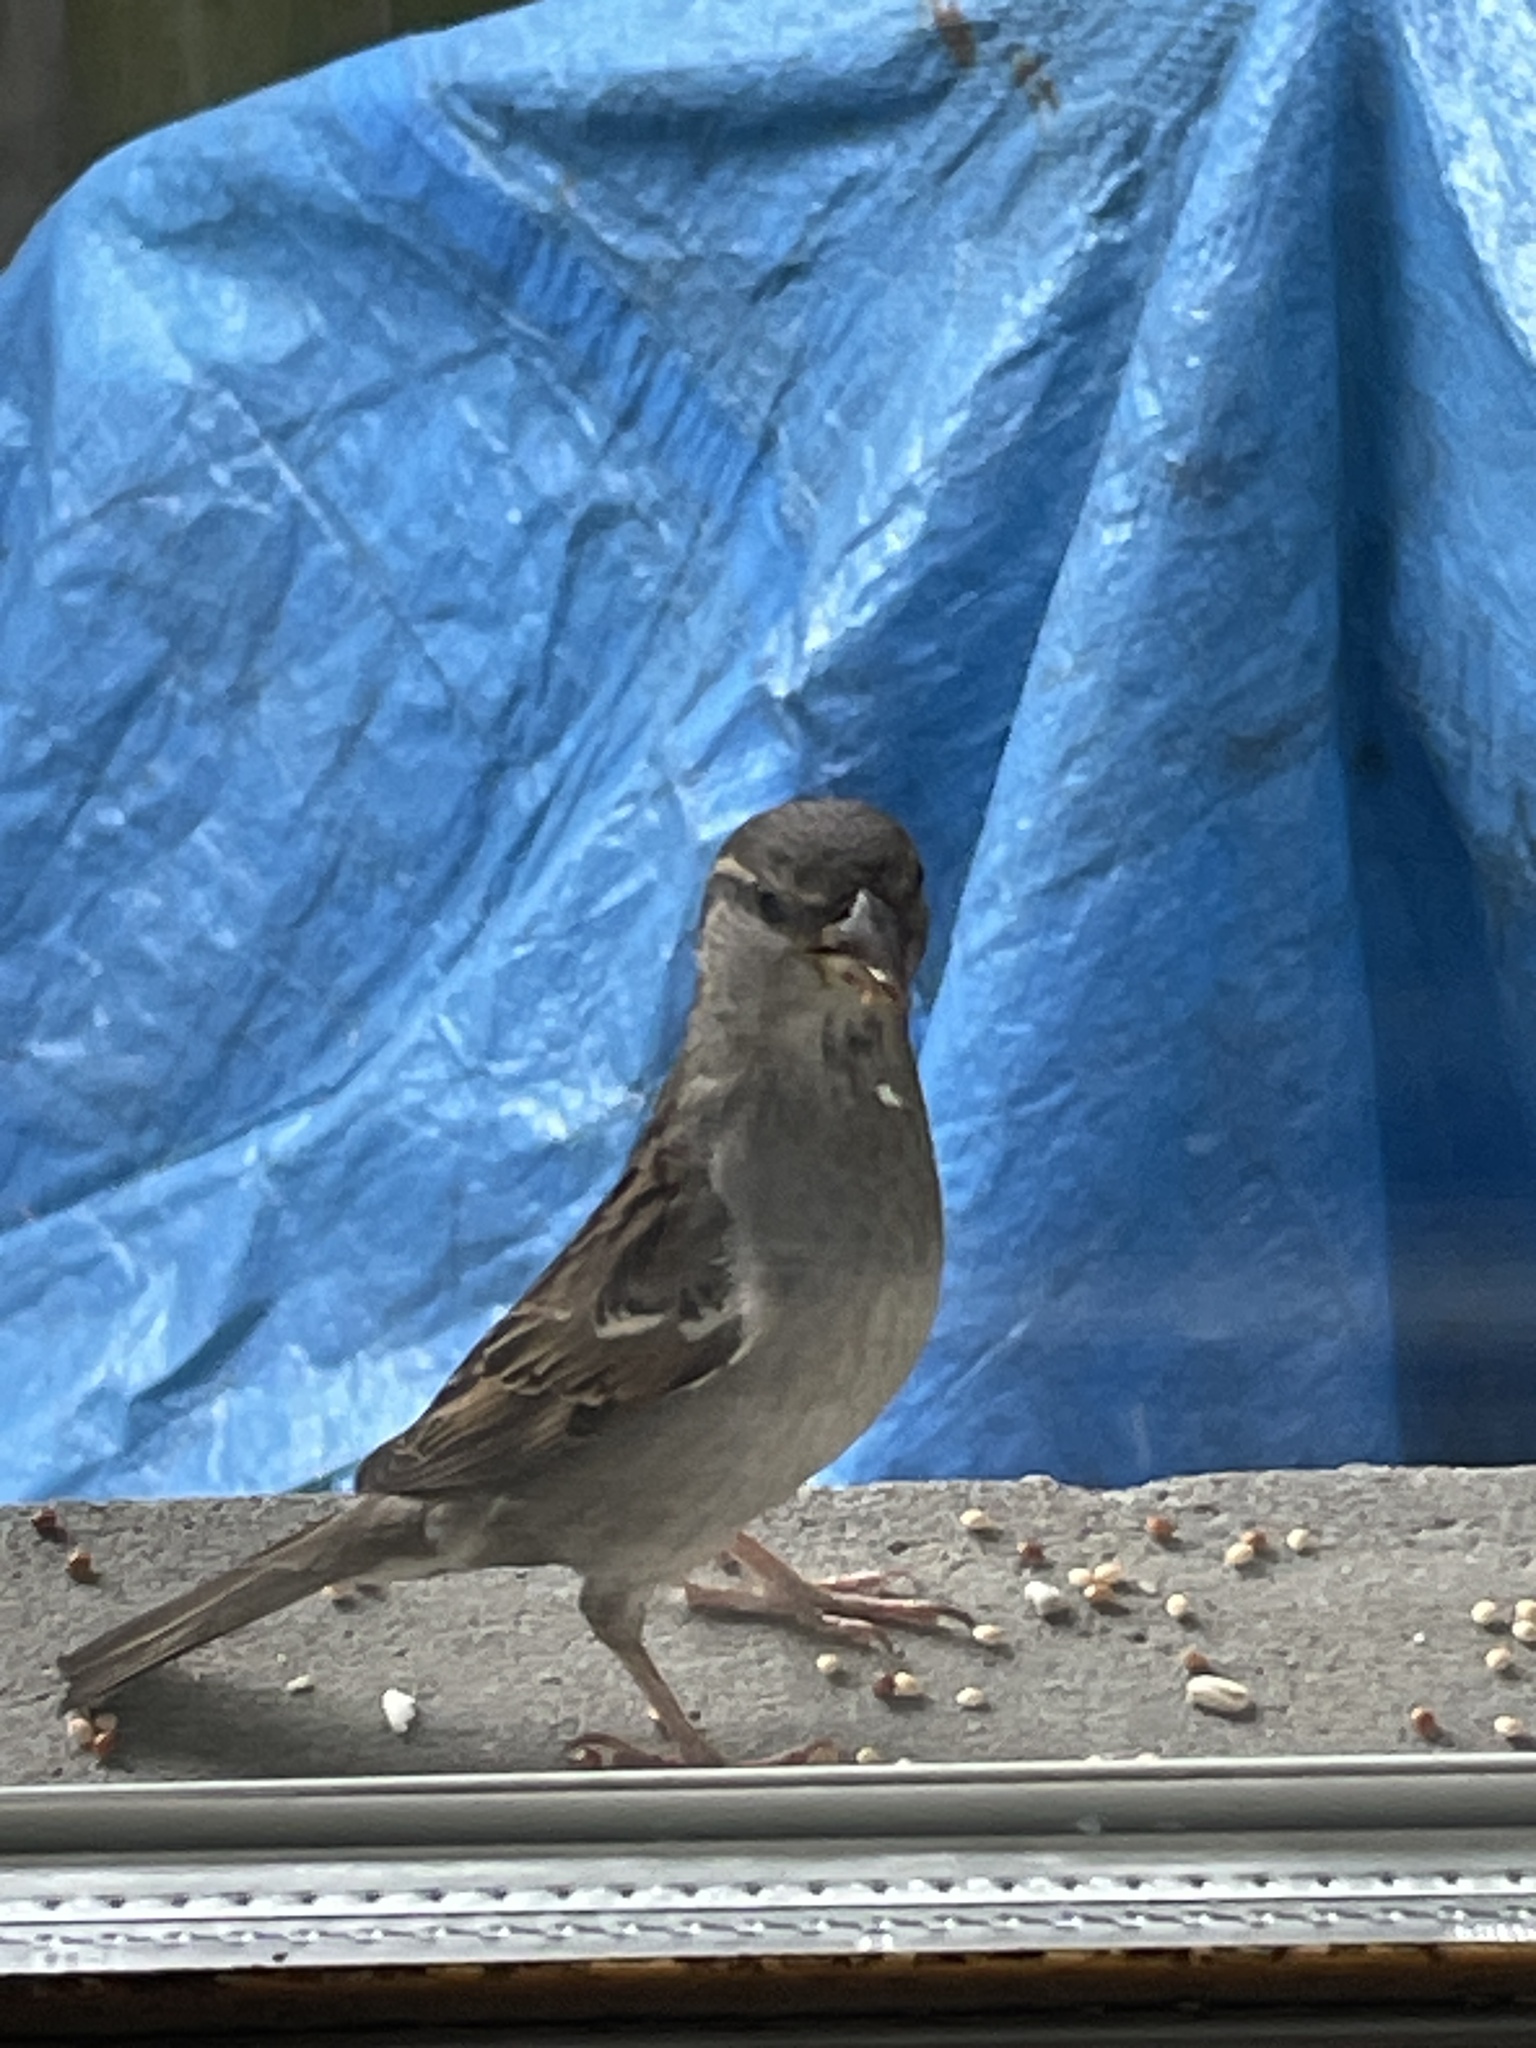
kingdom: Animalia
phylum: Chordata
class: Aves
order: Passeriformes
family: Passeridae
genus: Passer
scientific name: Passer domesticus
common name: House sparrow
